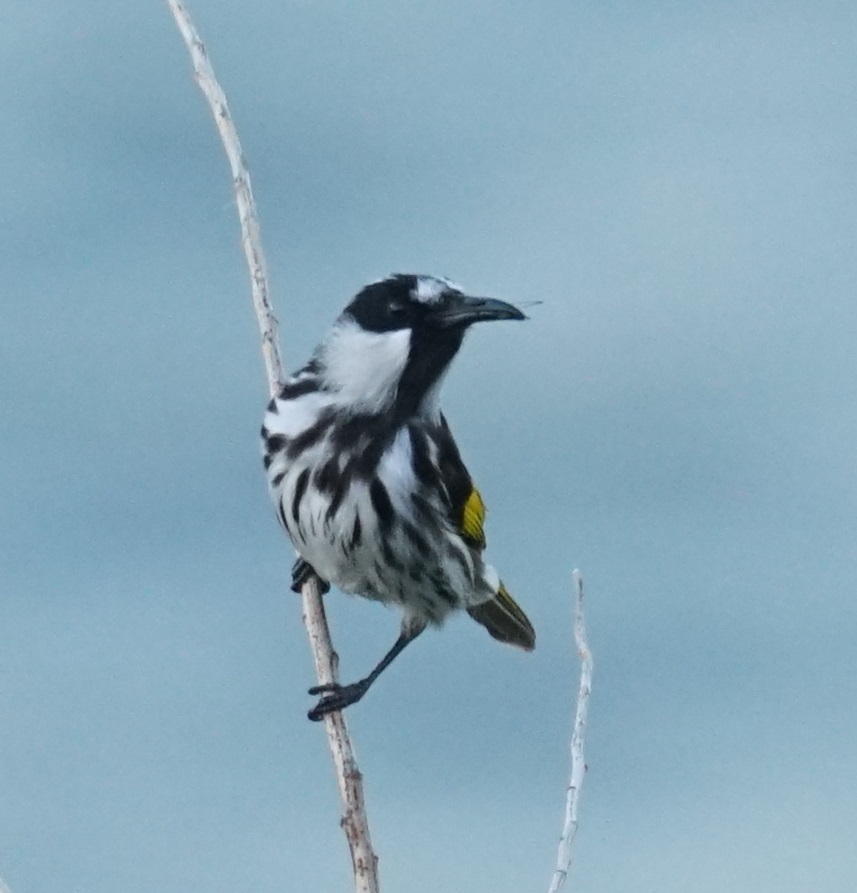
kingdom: Animalia
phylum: Chordata
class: Aves
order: Passeriformes
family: Meliphagidae
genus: Phylidonyris
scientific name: Phylidonyris niger
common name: White-cheeked honeyeater
